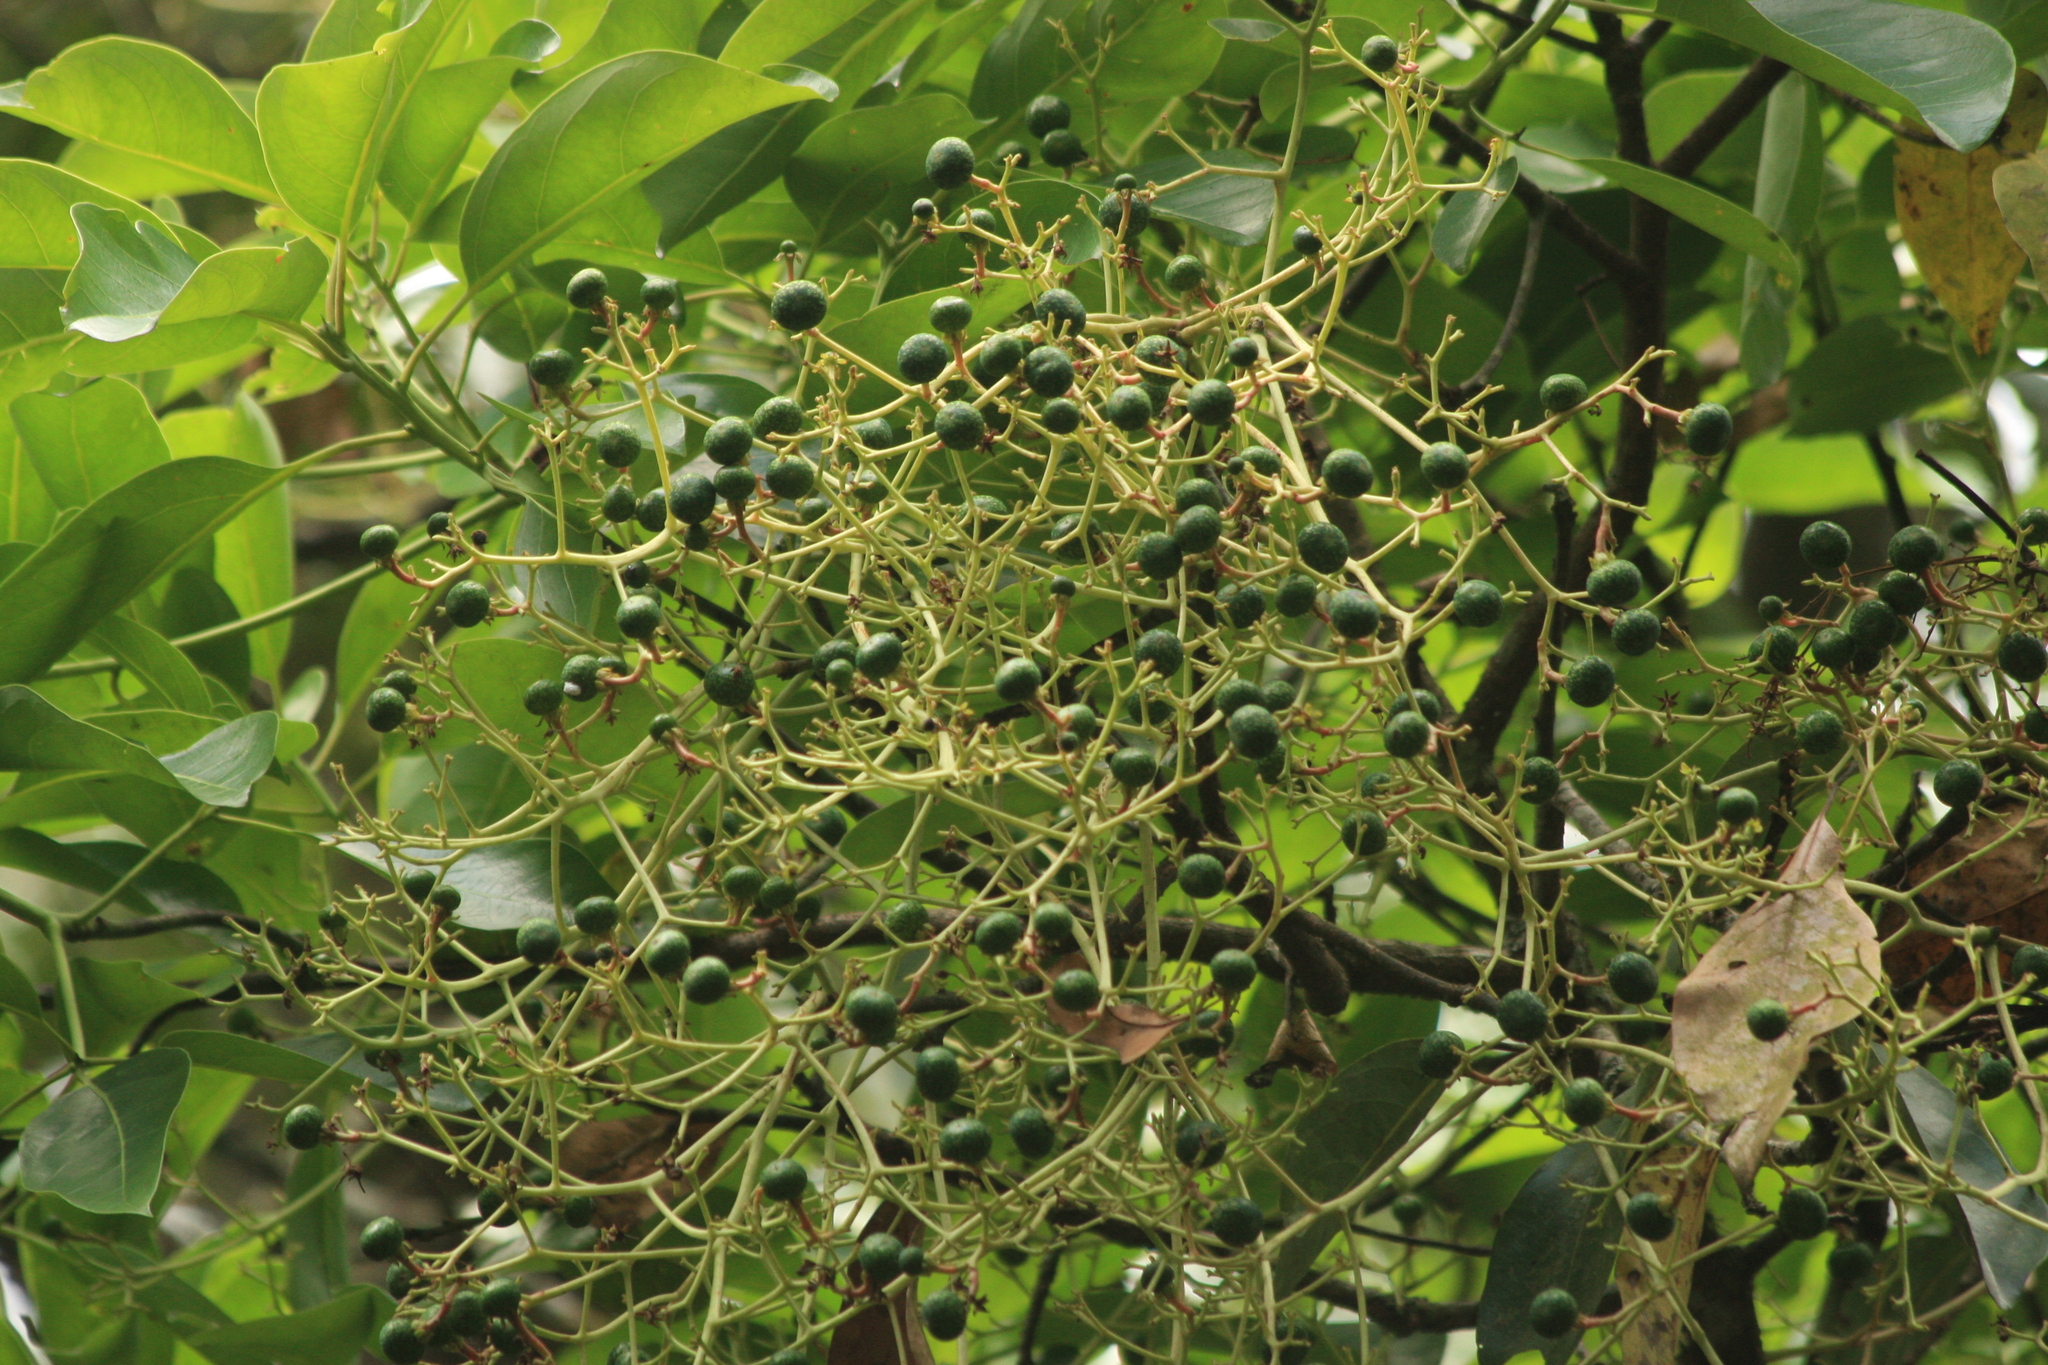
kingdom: Plantae
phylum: Tracheophyta
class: Magnoliopsida
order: Laurales
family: Lauraceae
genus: Machilus
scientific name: Machilus glaucescens
